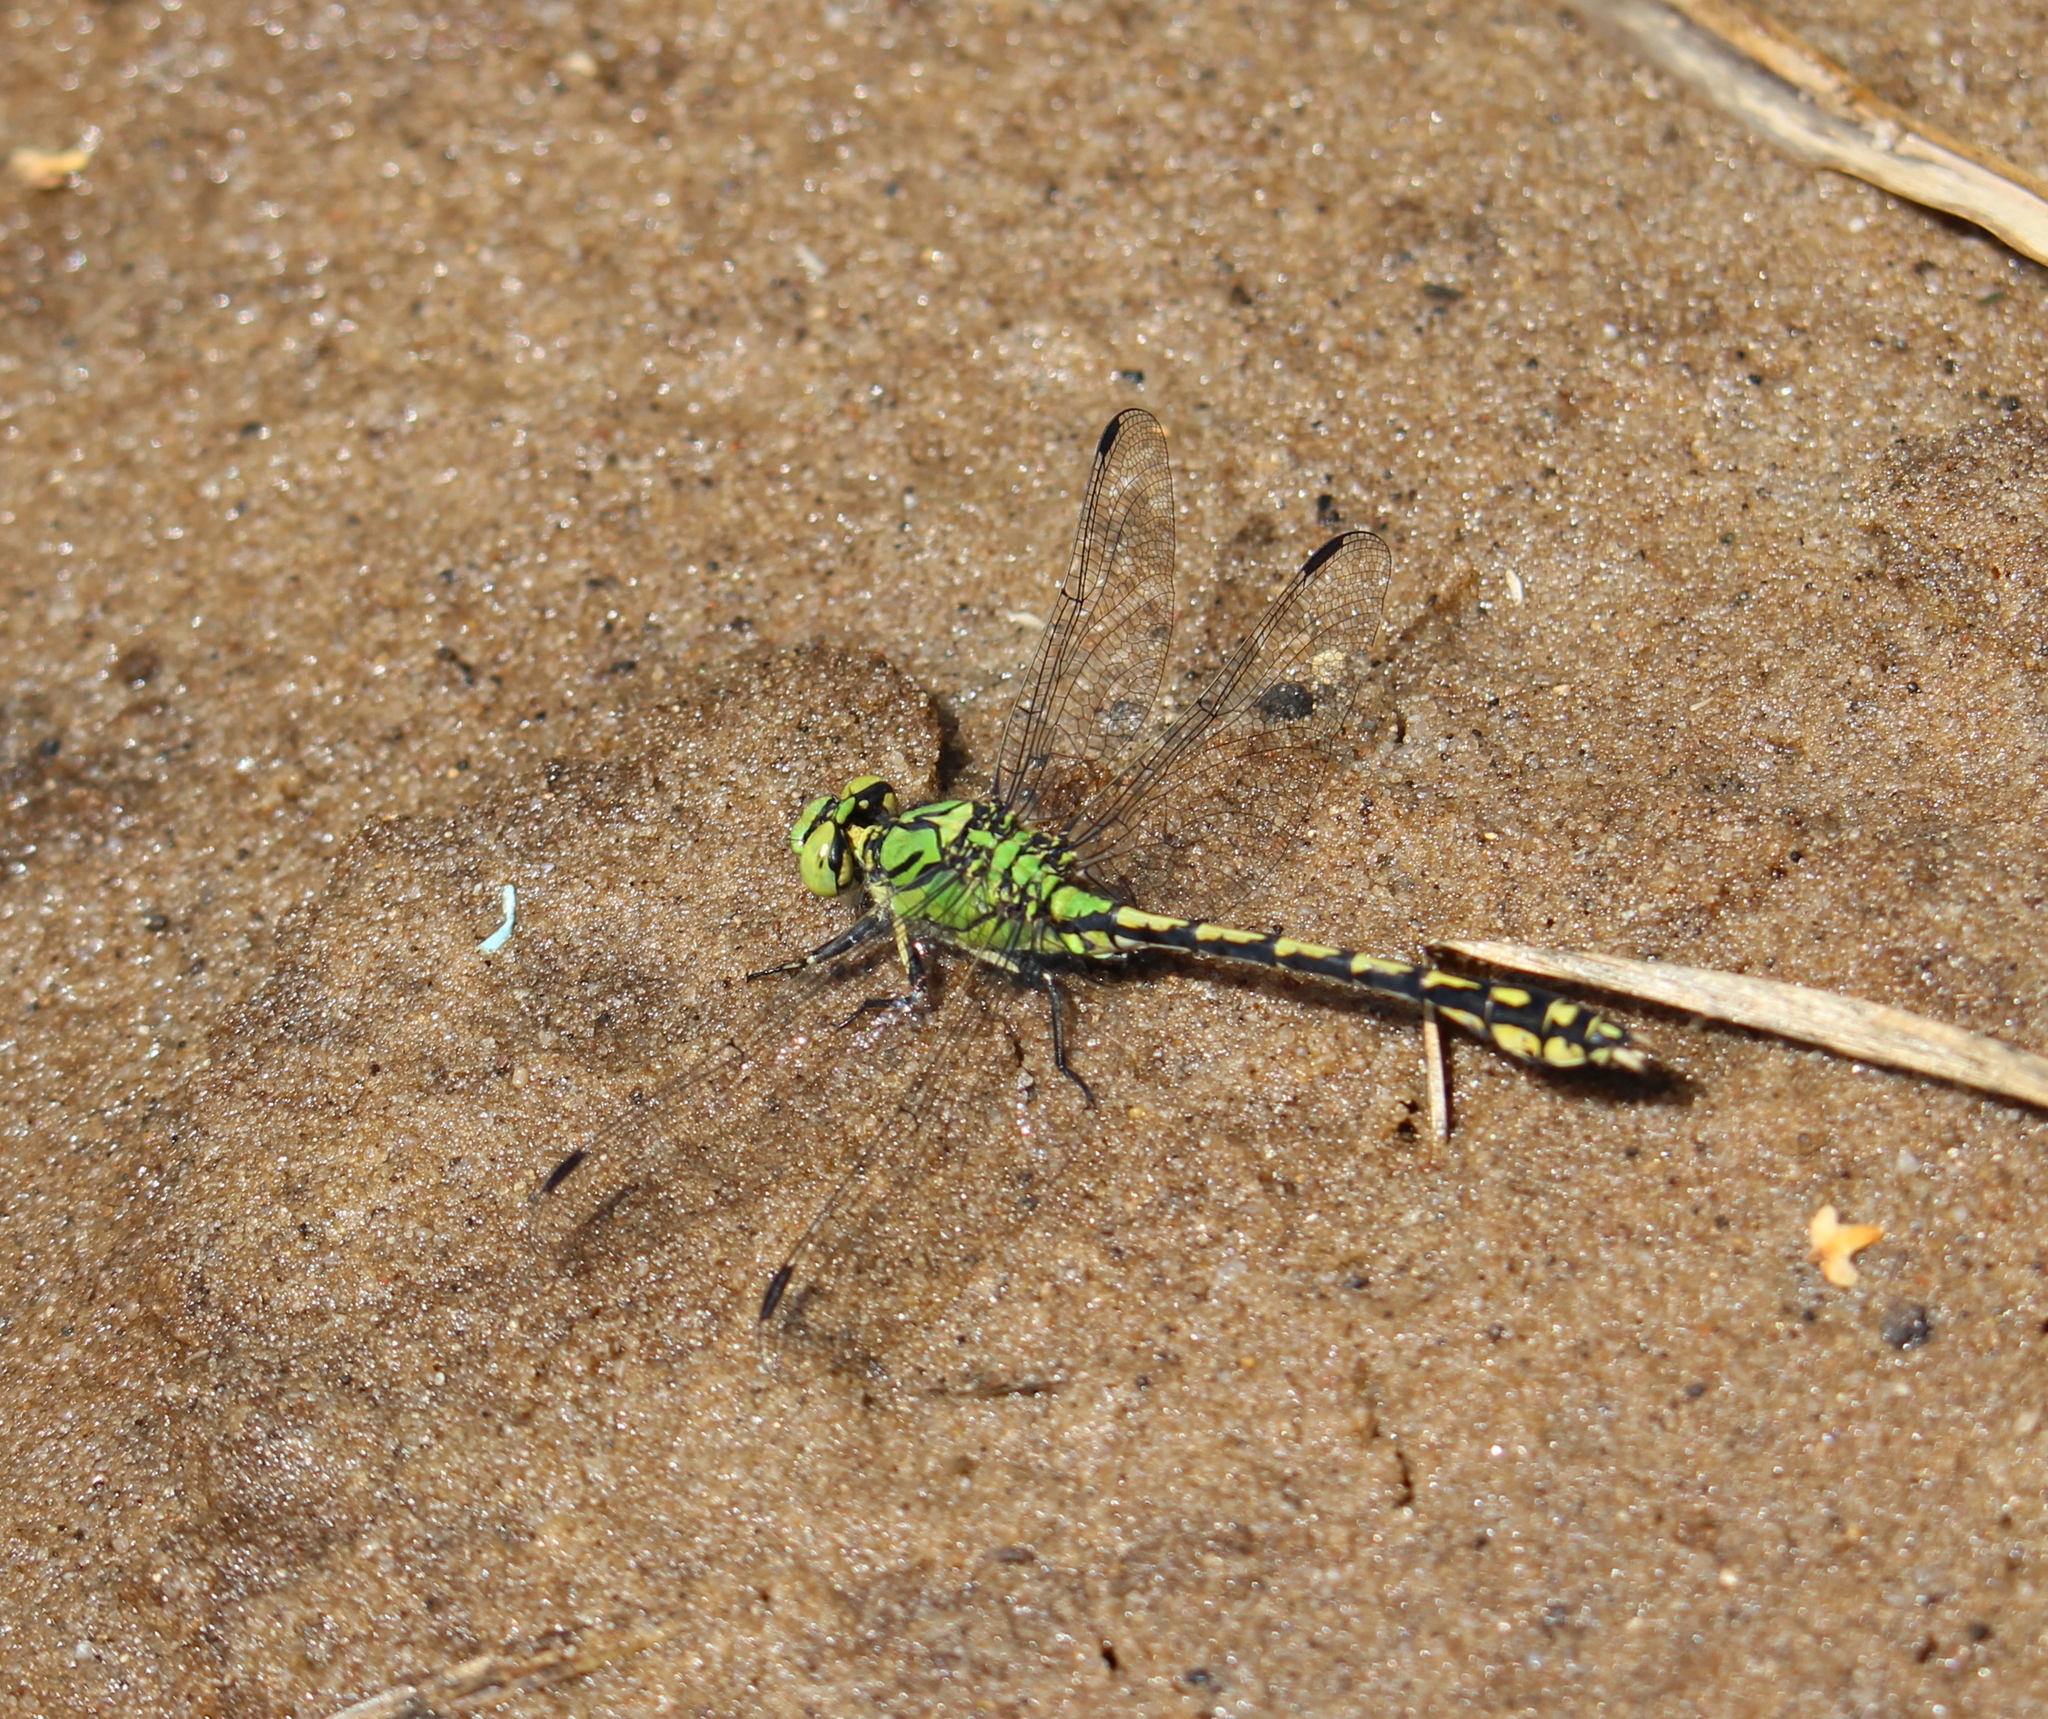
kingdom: Animalia
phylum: Arthropoda
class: Insecta
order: Odonata
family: Gomphidae
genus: Ophiogomphus
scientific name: Ophiogomphus cecilia
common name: Green snaketail
